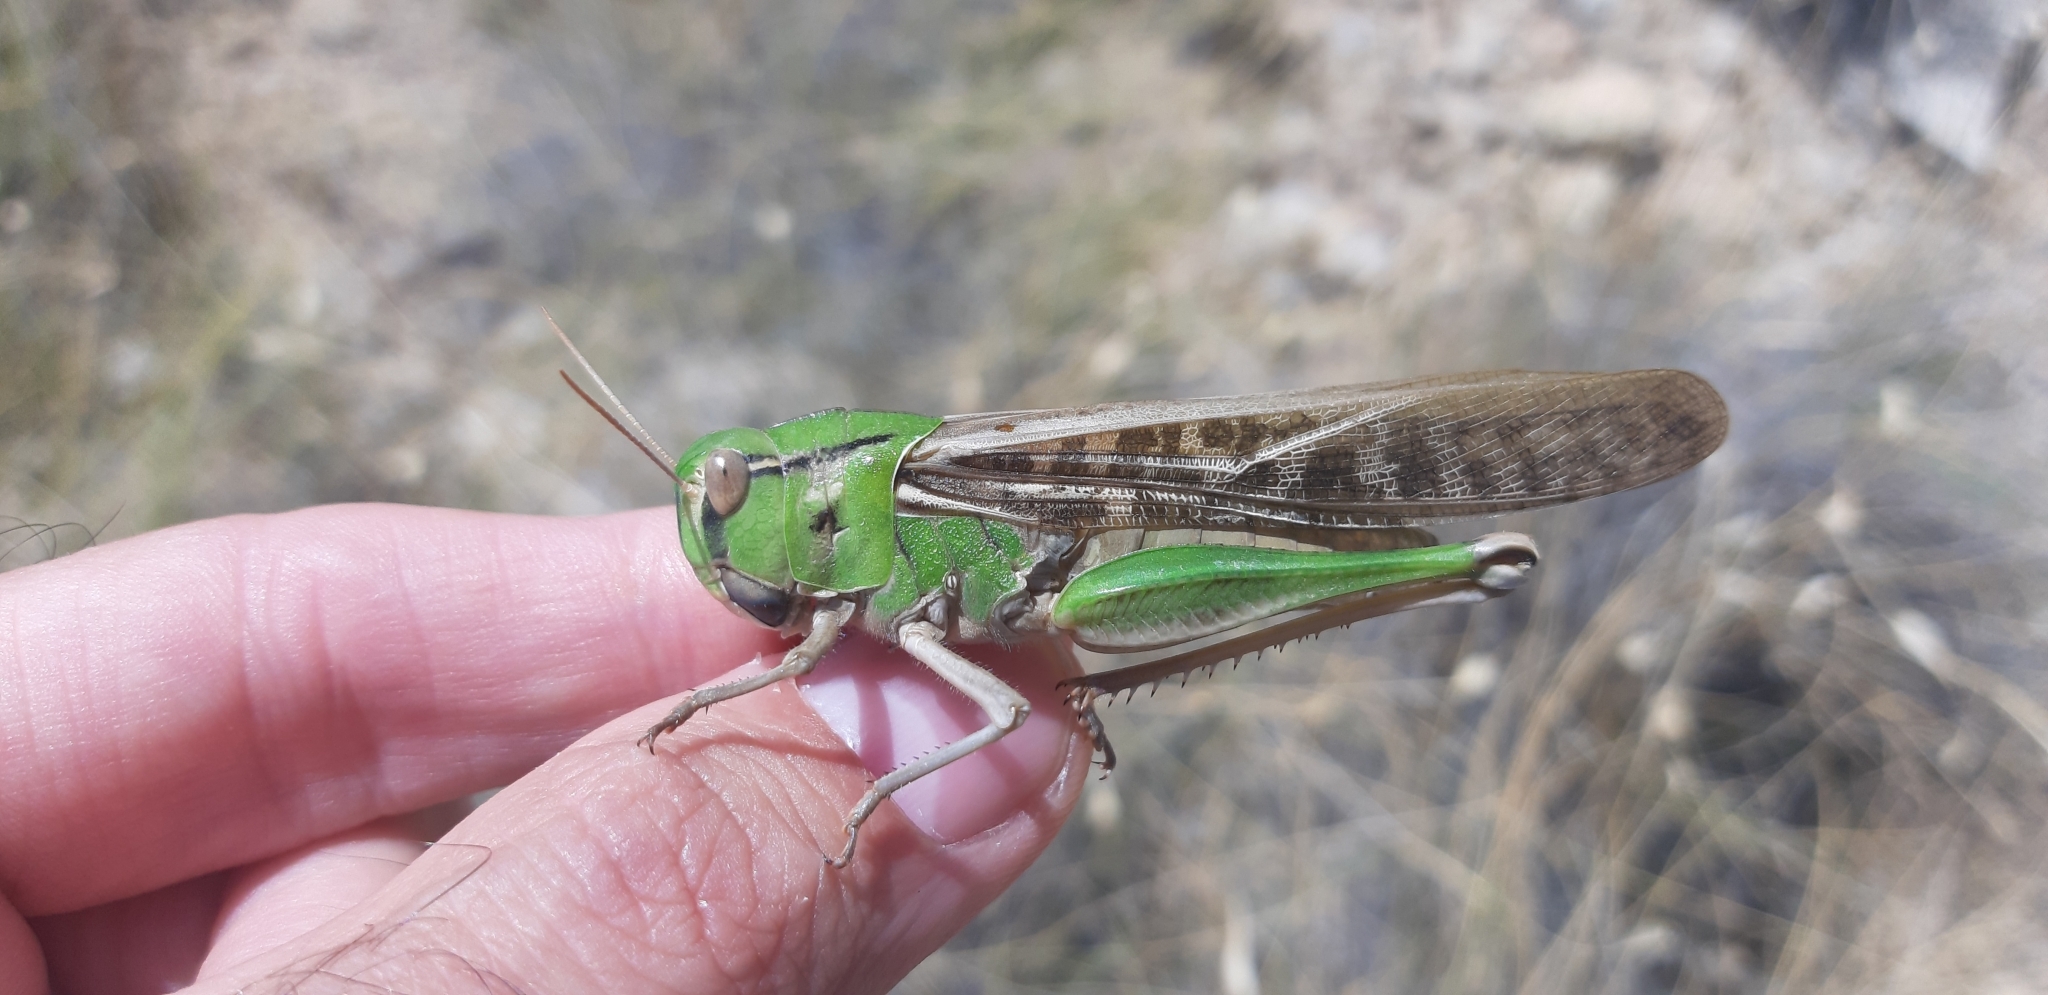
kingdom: Animalia
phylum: Arthropoda
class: Insecta
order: Orthoptera
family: Acrididae
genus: Locusta
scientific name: Locusta migratoria
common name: Migratory locust
